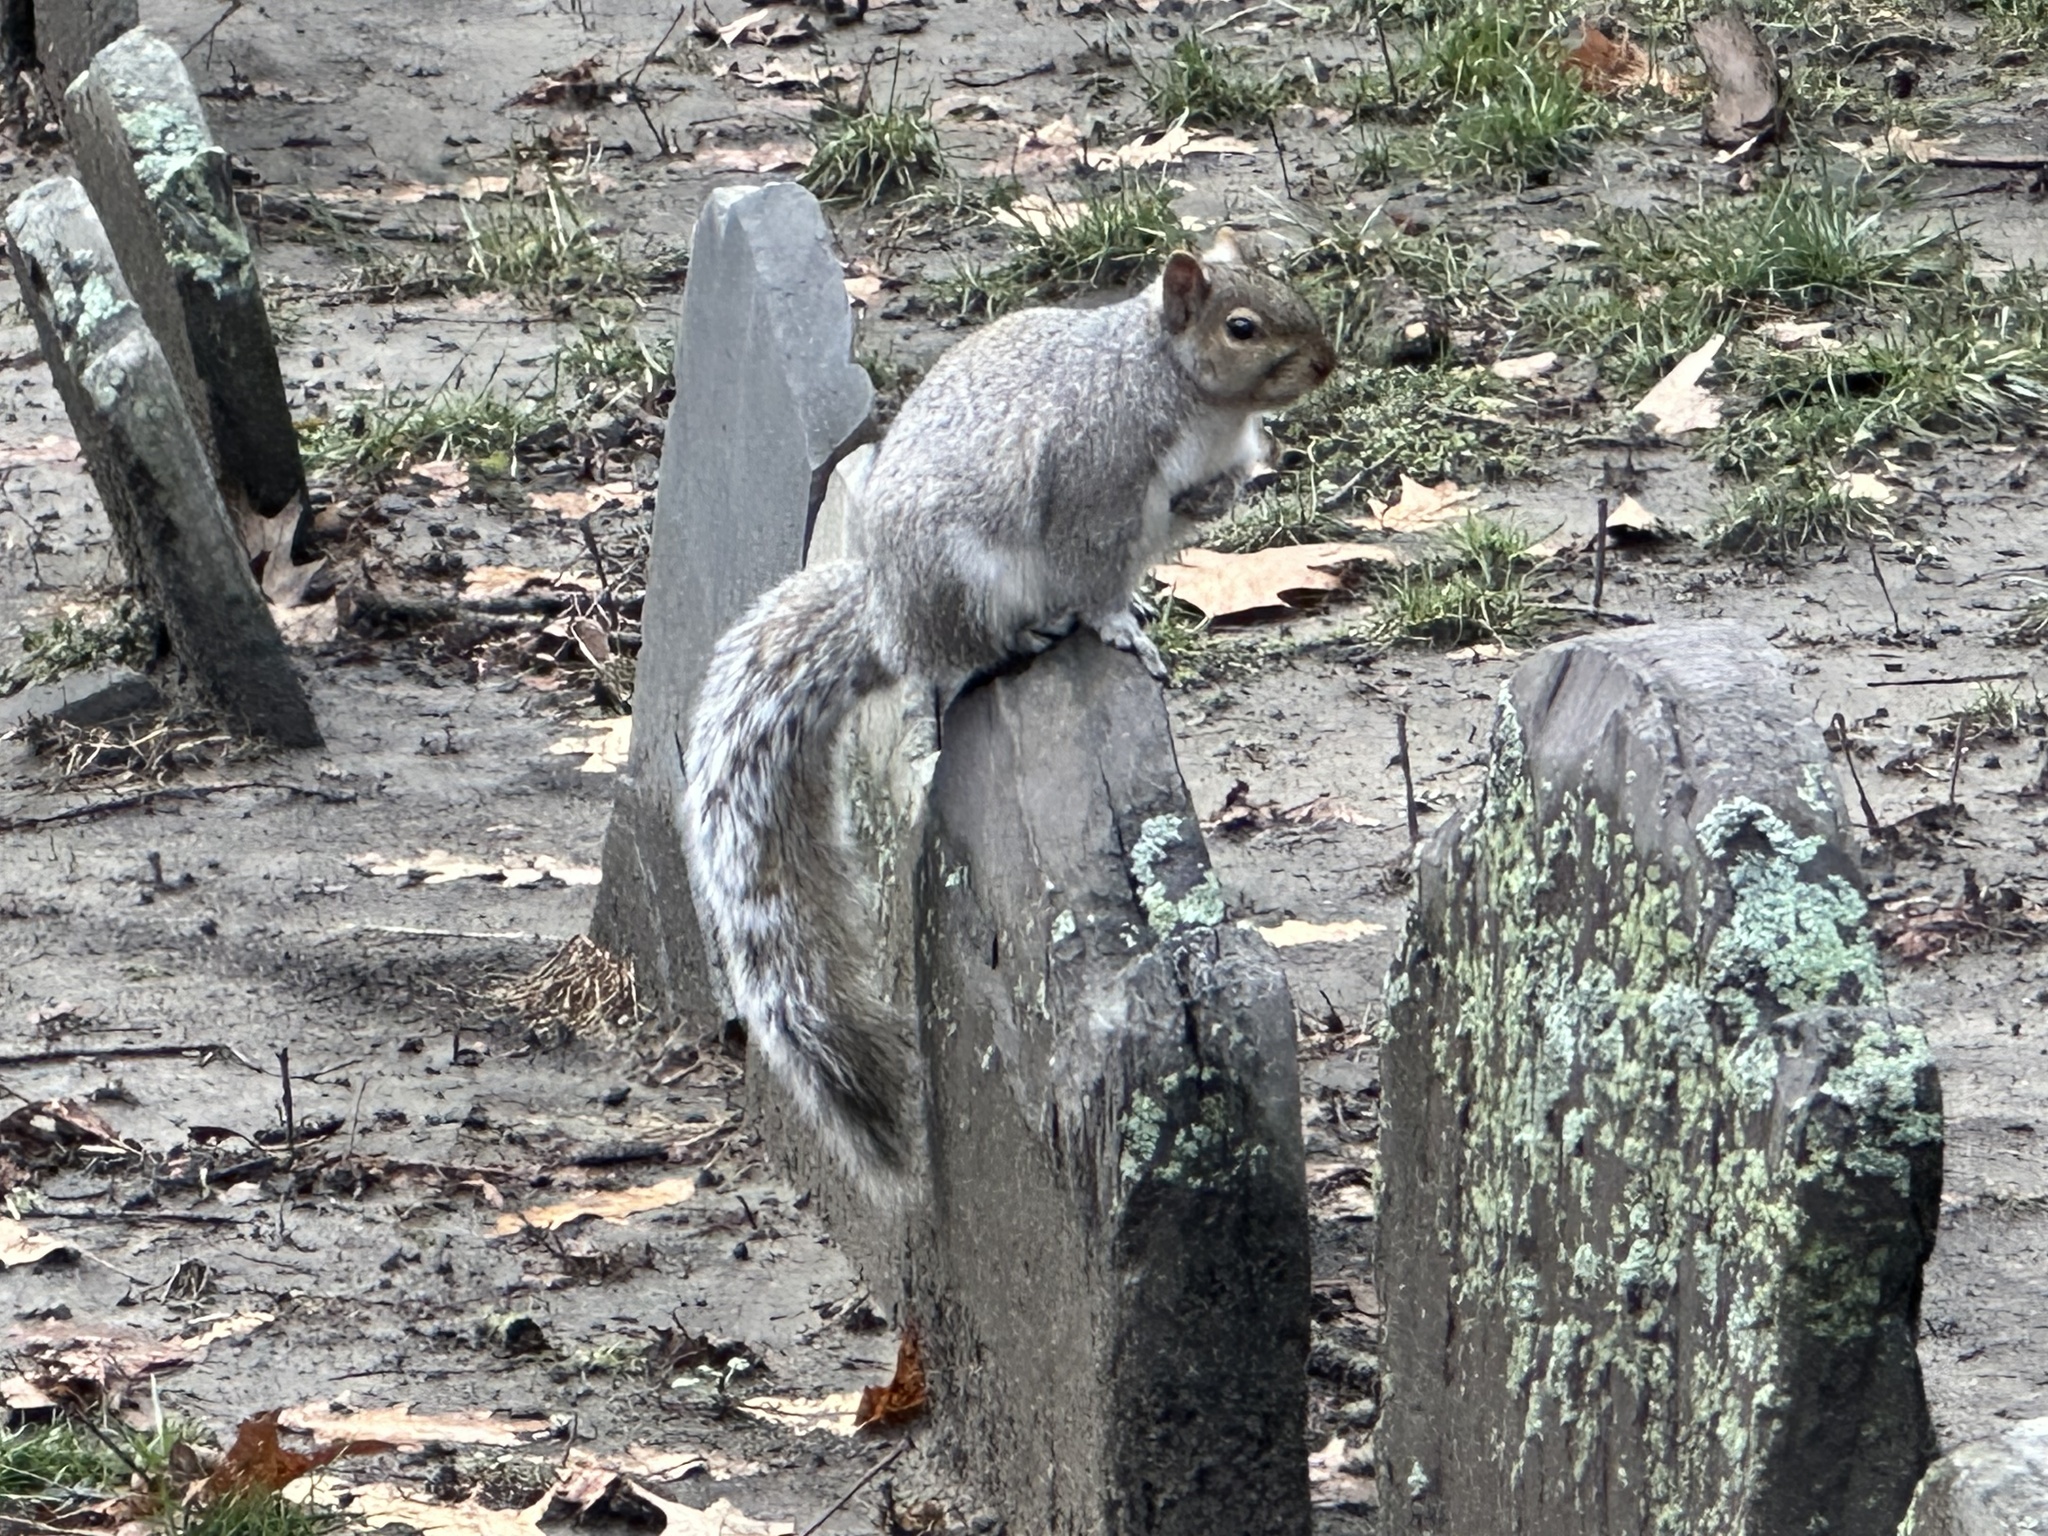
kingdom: Animalia
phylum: Chordata
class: Mammalia
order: Rodentia
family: Sciuridae
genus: Sciurus
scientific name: Sciurus carolinensis
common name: Eastern gray squirrel
